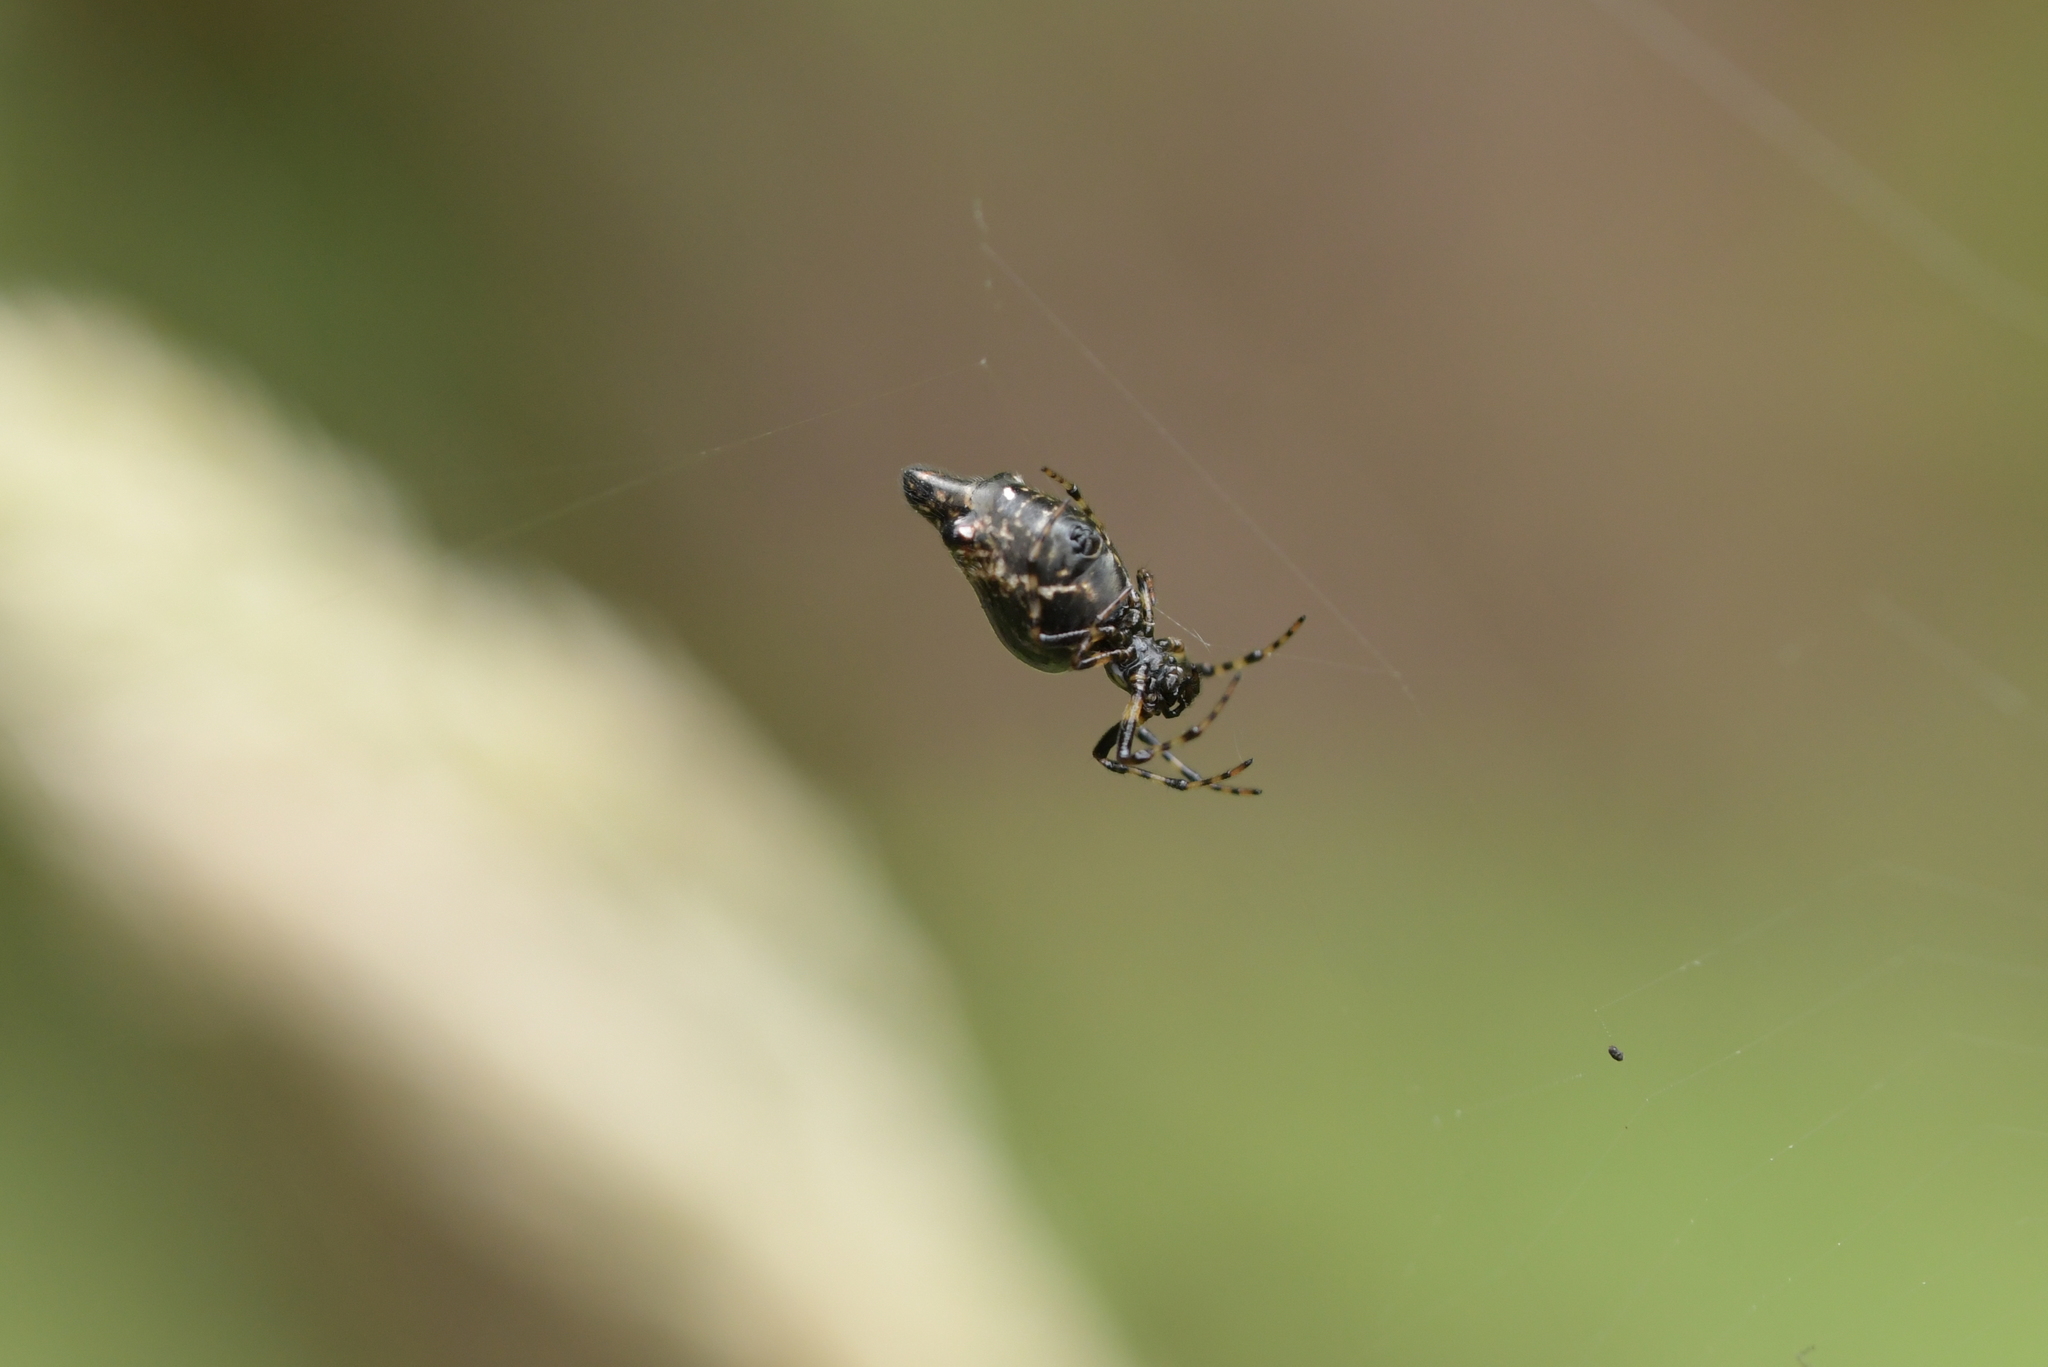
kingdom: Animalia
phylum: Arthropoda
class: Arachnida
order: Araneae
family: Araneidae
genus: Cyclosa
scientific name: Cyclosa trilobata
